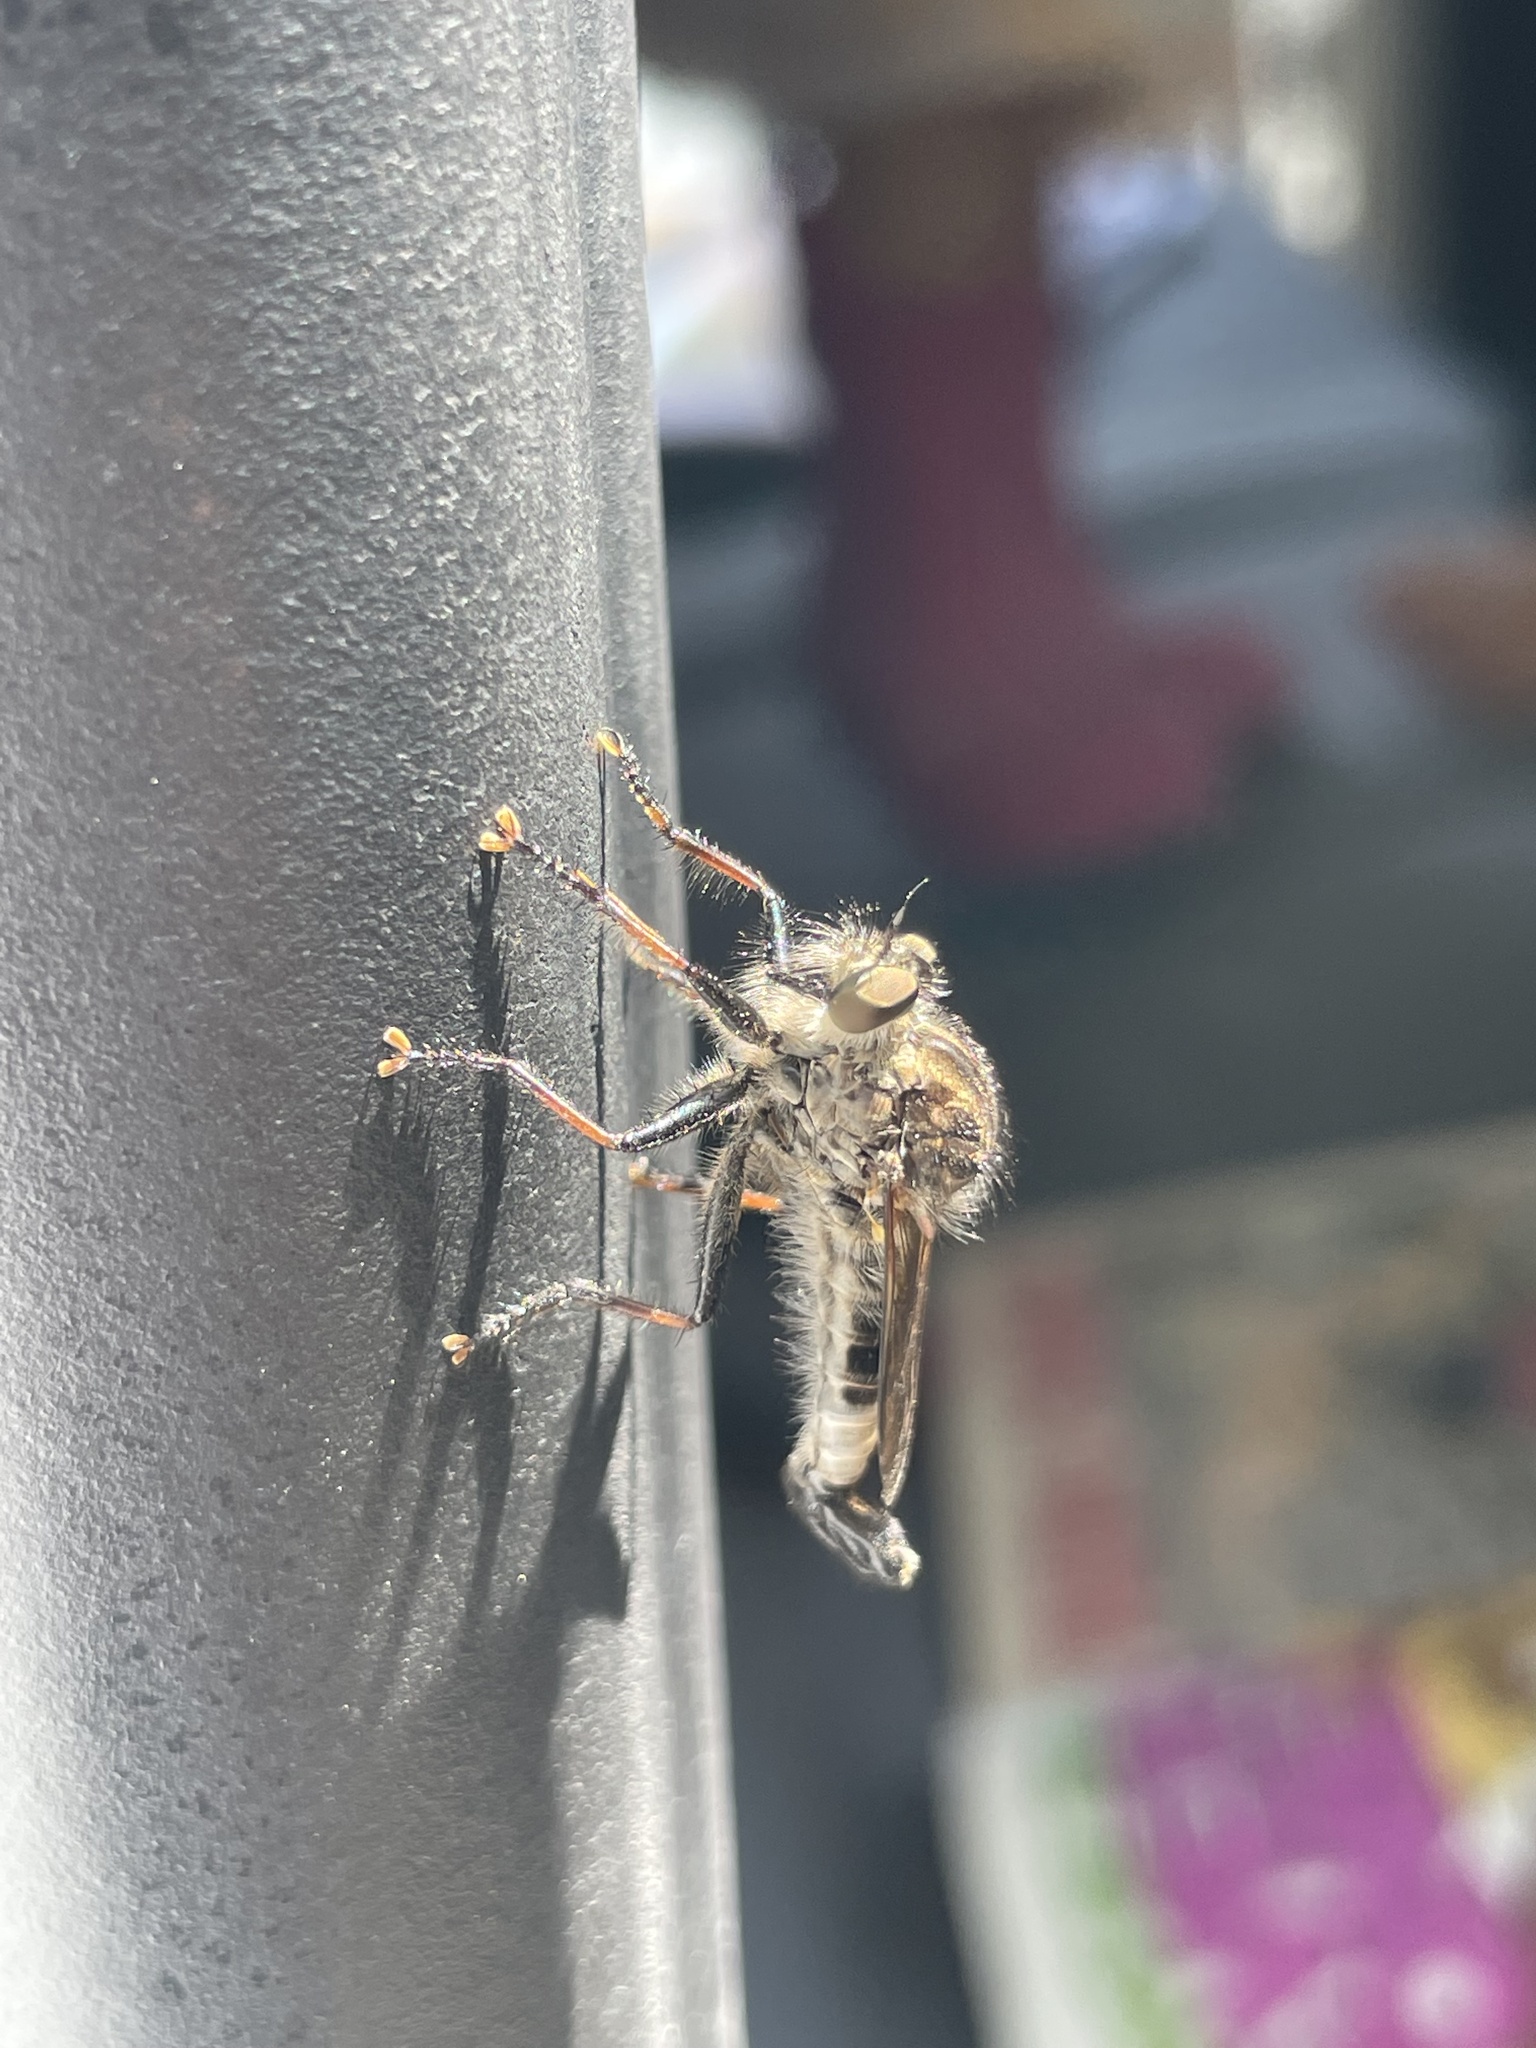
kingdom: Animalia
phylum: Arthropoda
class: Insecta
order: Diptera
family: Asilidae
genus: Efferia
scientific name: Efferia aestuans
